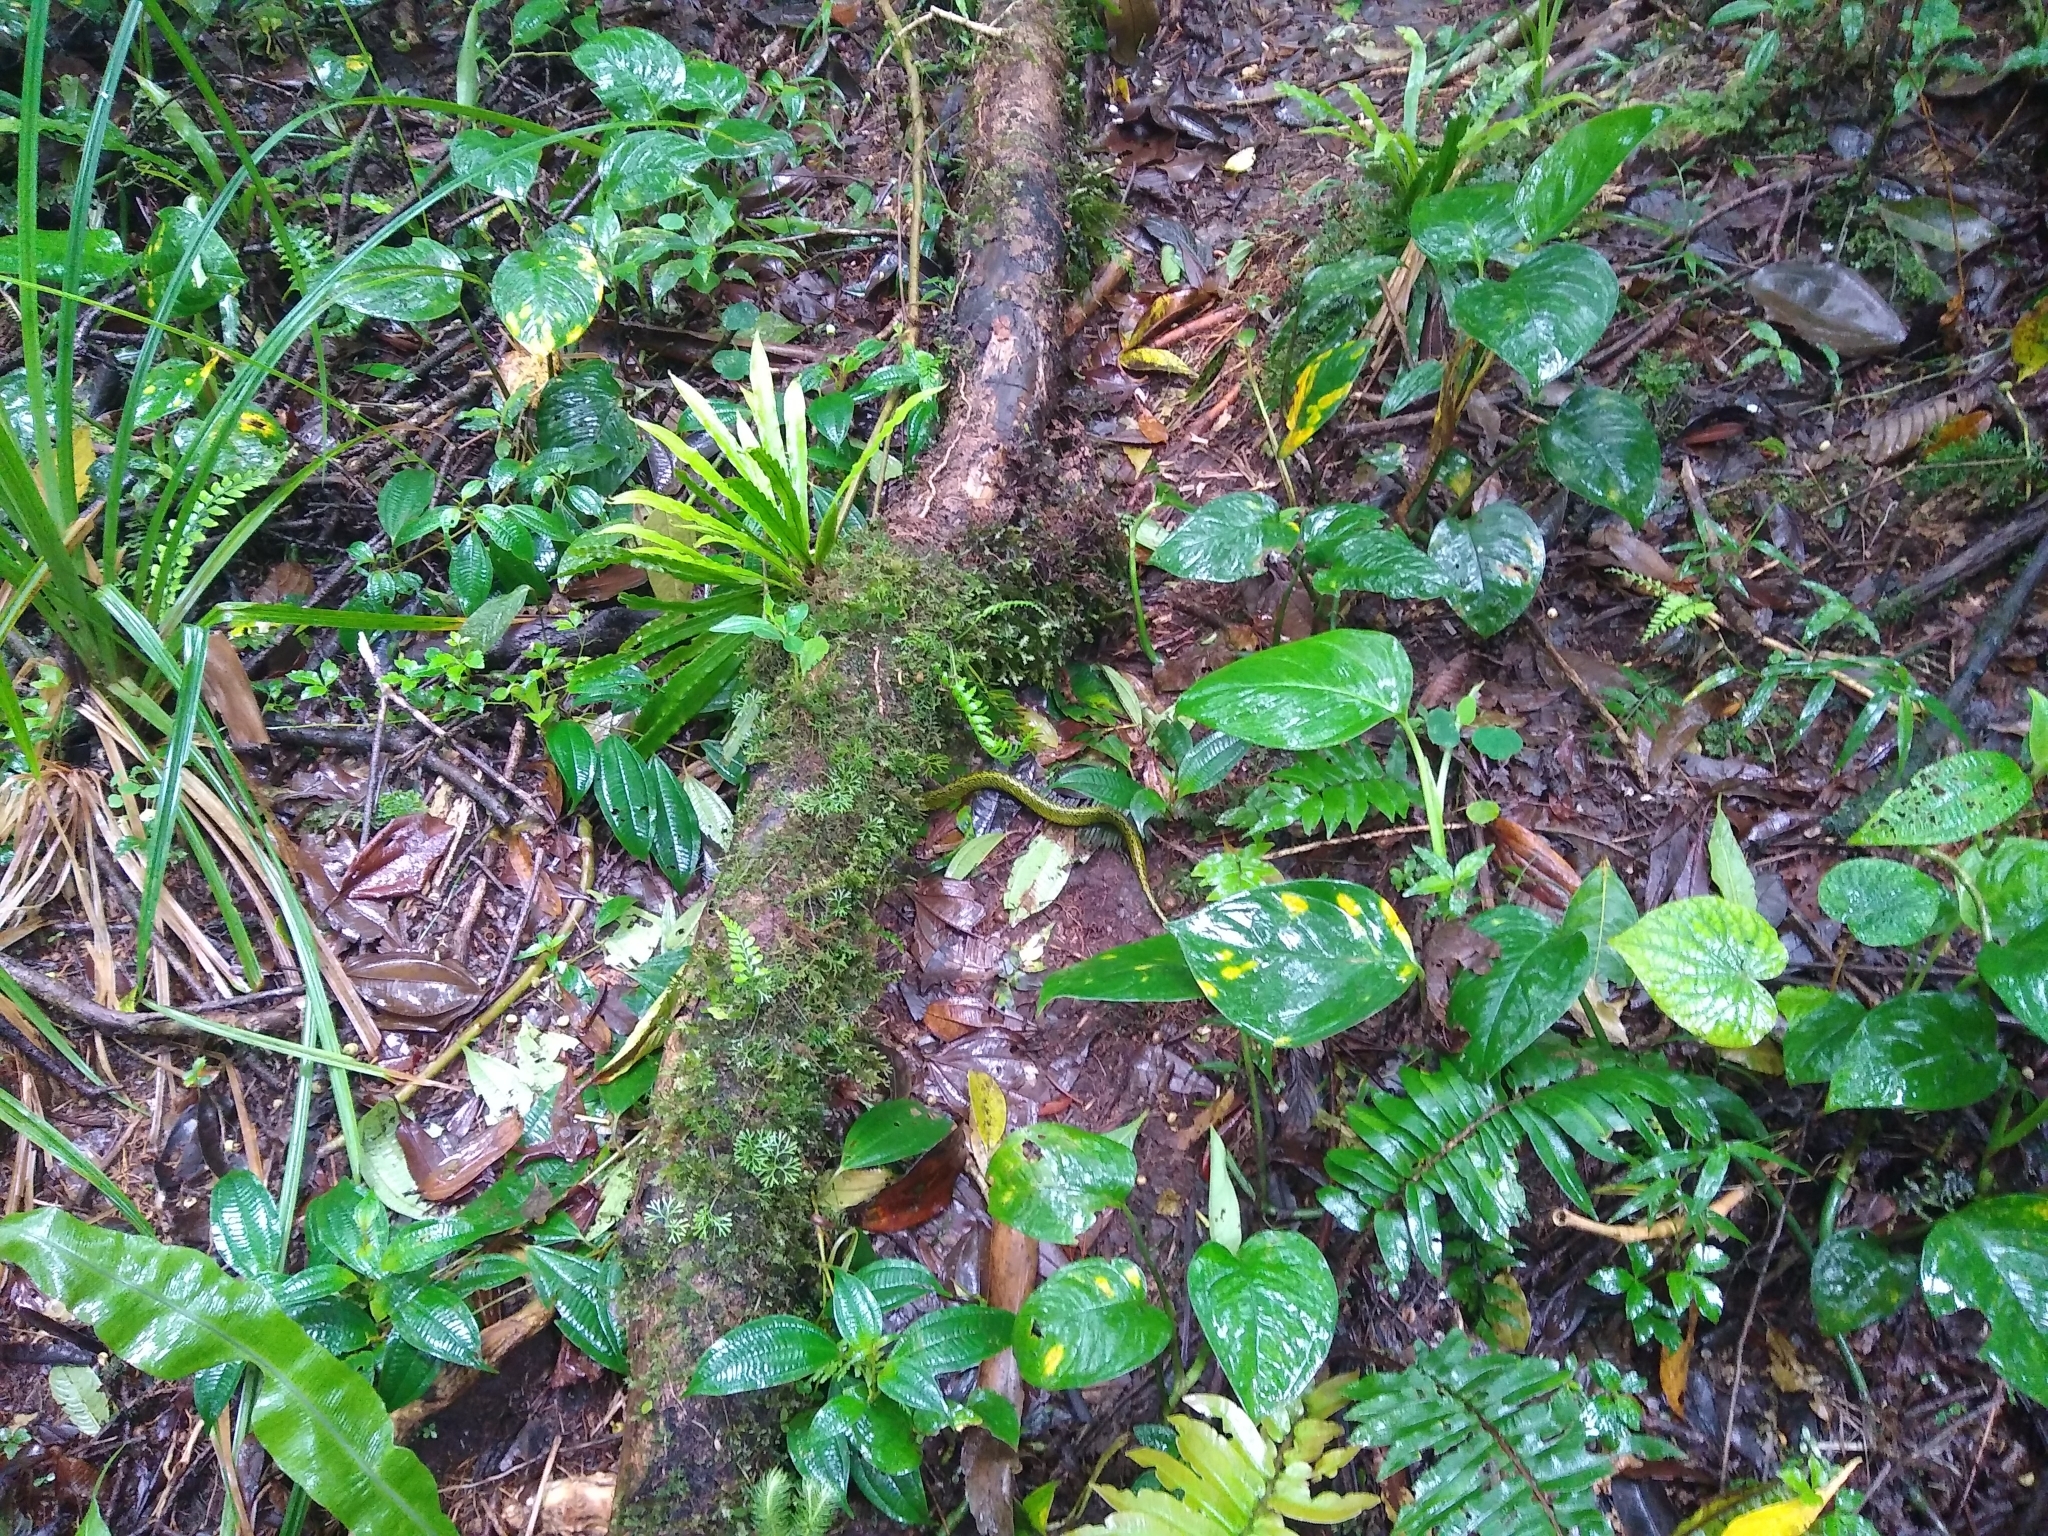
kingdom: Animalia
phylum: Chordata
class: Squamata
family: Viperidae
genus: Bothriechis
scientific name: Bothriechis nigroviridis
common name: Black-speckled palm pit viper
